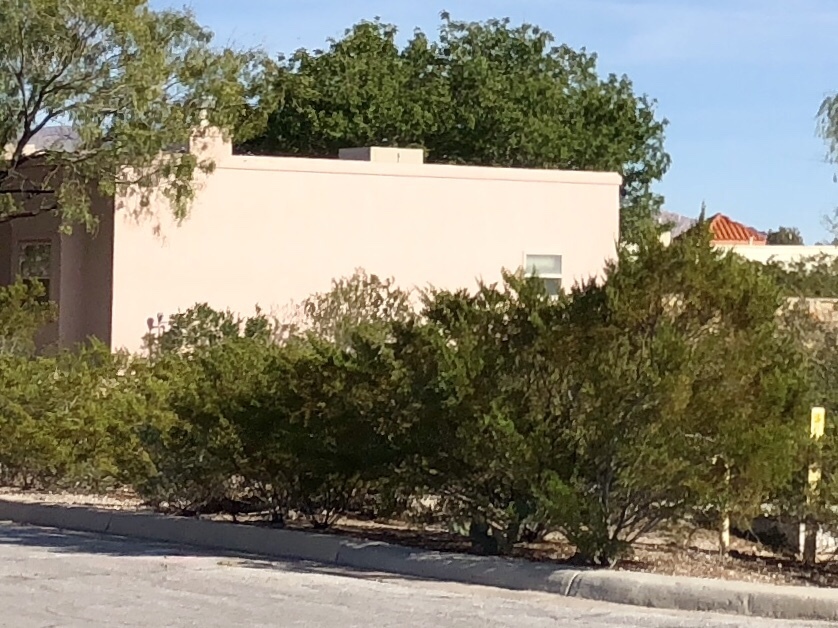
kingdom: Plantae
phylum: Tracheophyta
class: Magnoliopsida
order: Zygophyllales
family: Zygophyllaceae
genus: Larrea
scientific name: Larrea tridentata
